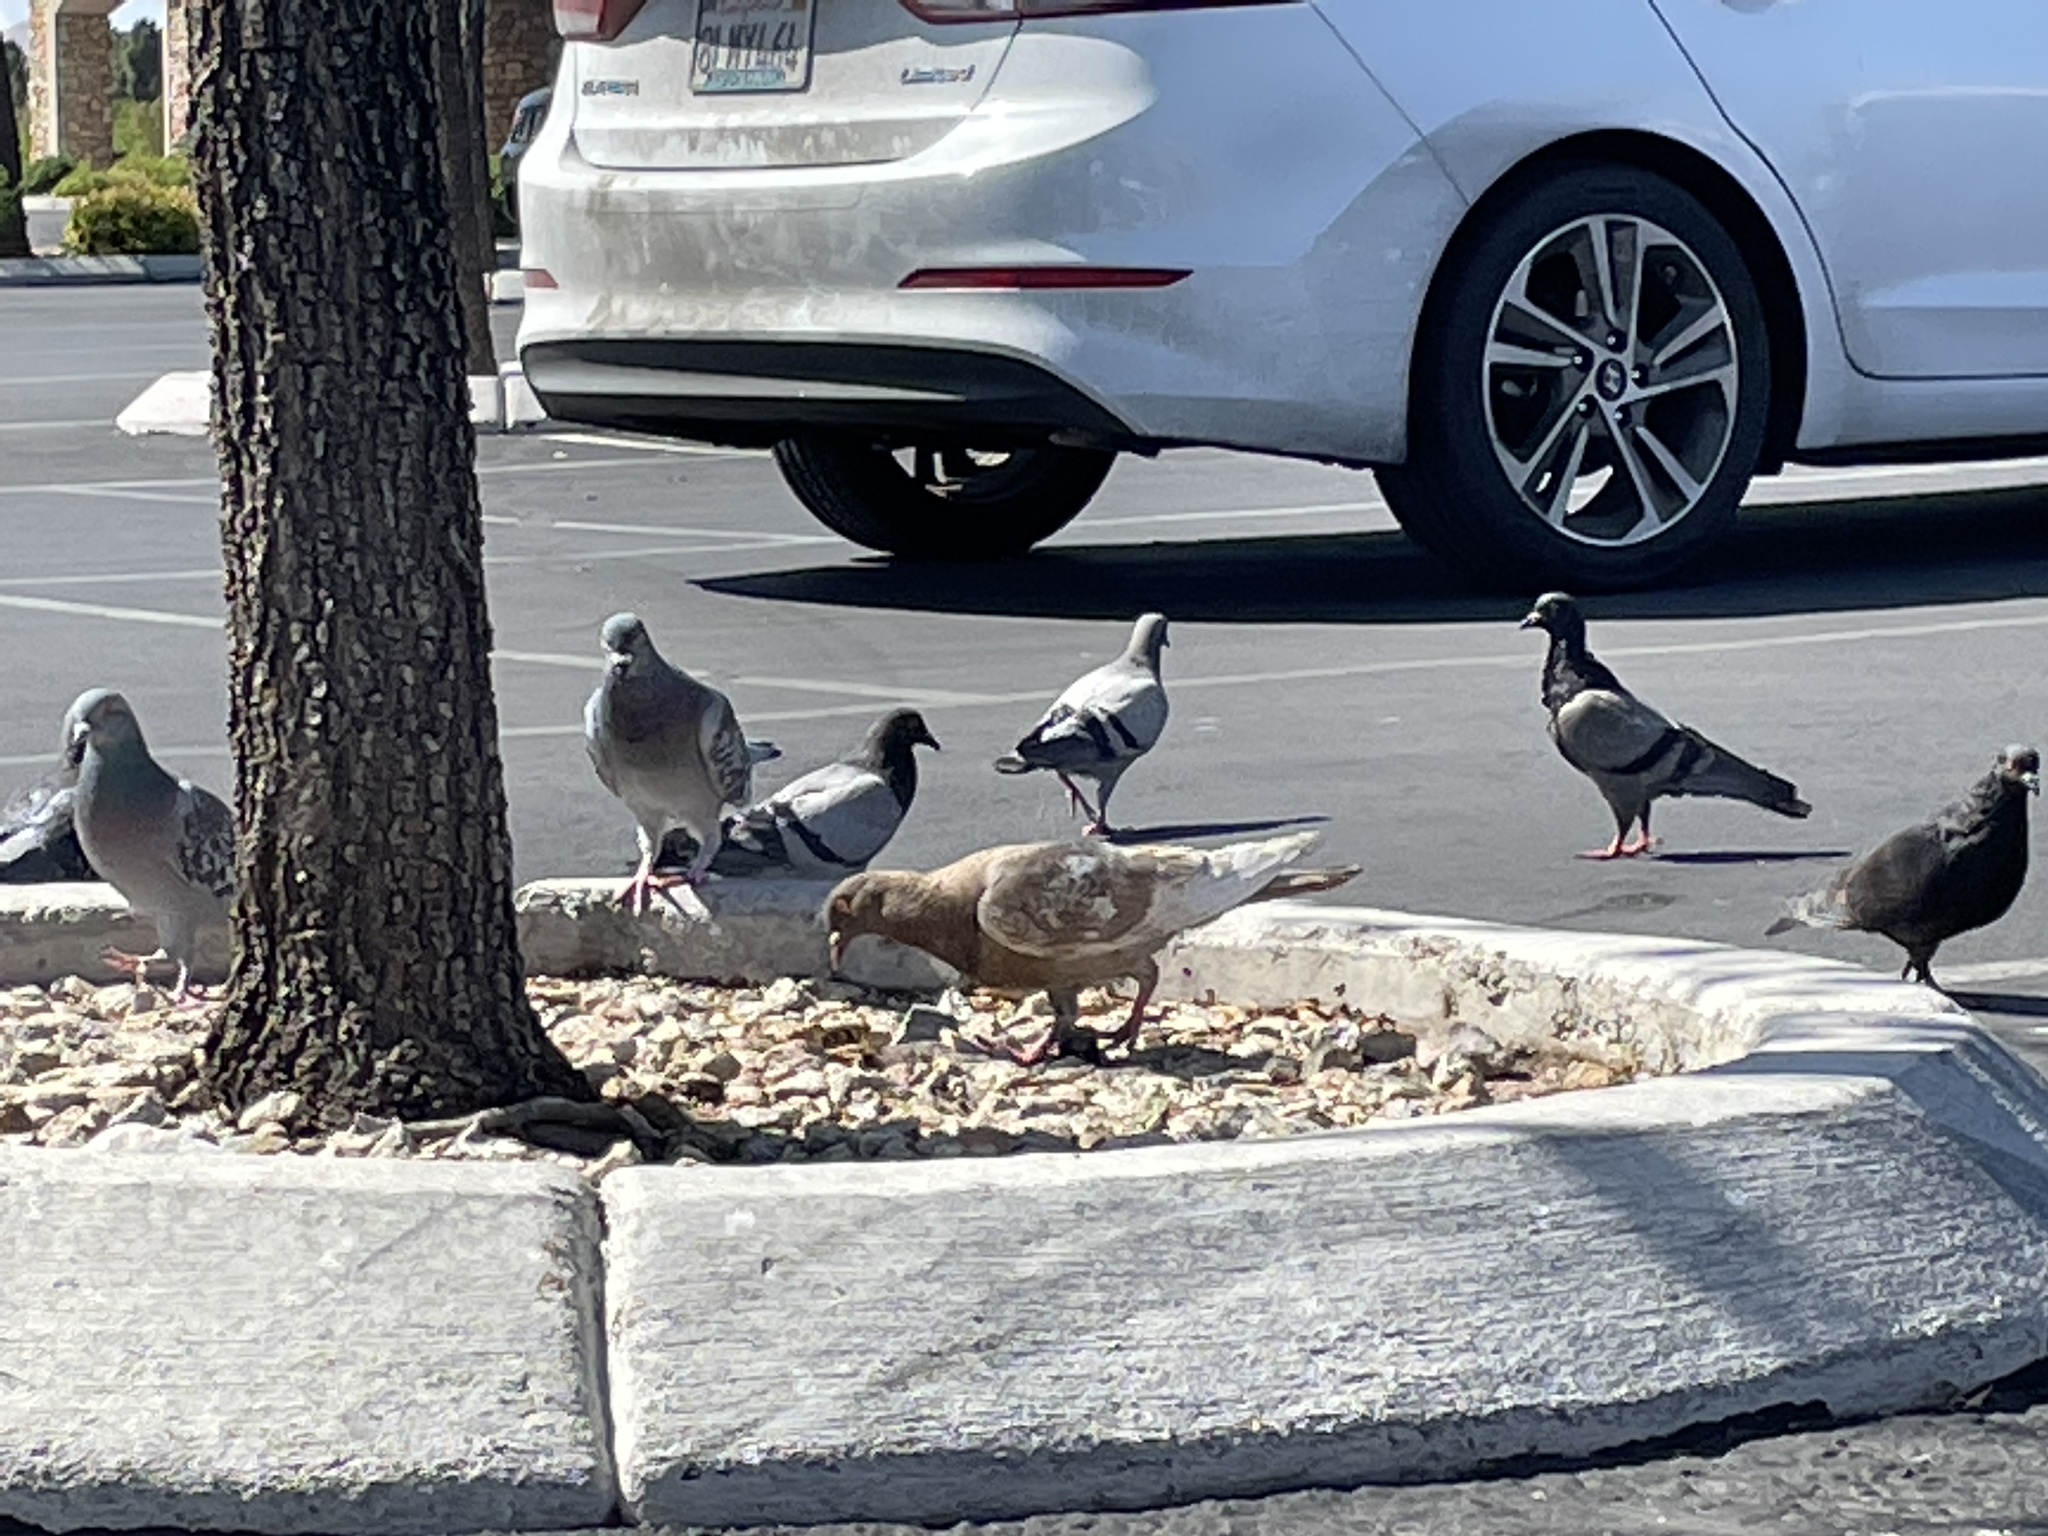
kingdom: Animalia
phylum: Chordata
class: Aves
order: Columbiformes
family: Columbidae
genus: Columba
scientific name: Columba livia
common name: Rock pigeon
